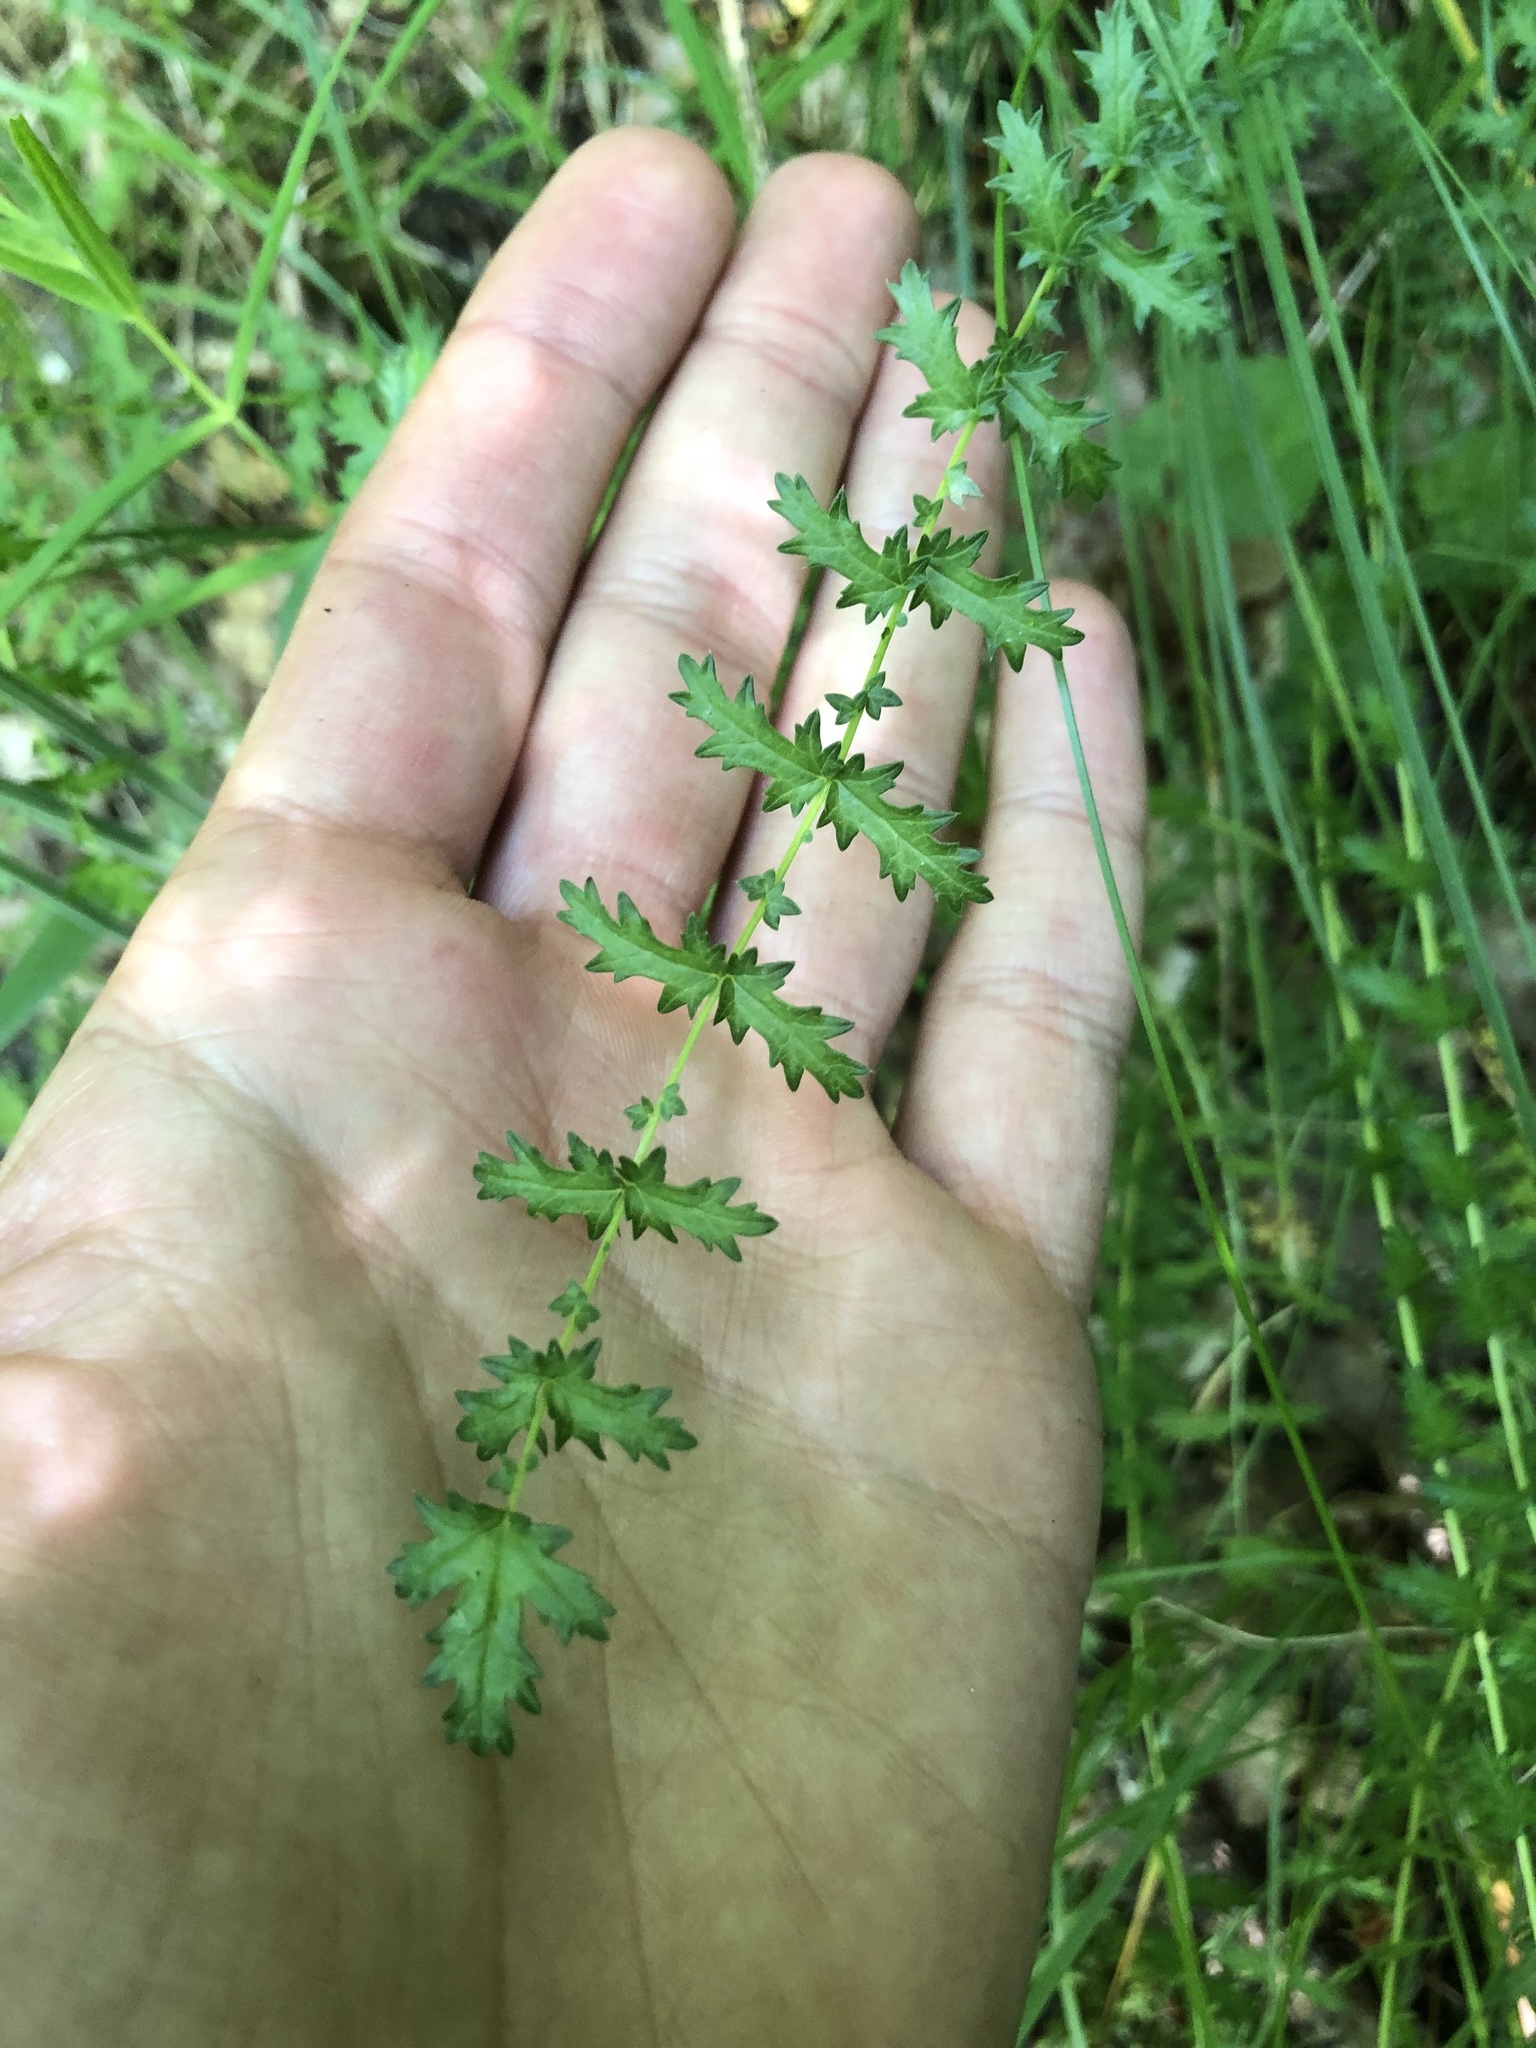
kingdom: Plantae
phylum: Tracheophyta
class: Magnoliopsida
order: Rosales
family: Rosaceae
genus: Filipendula
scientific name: Filipendula vulgaris
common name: Dropwort
